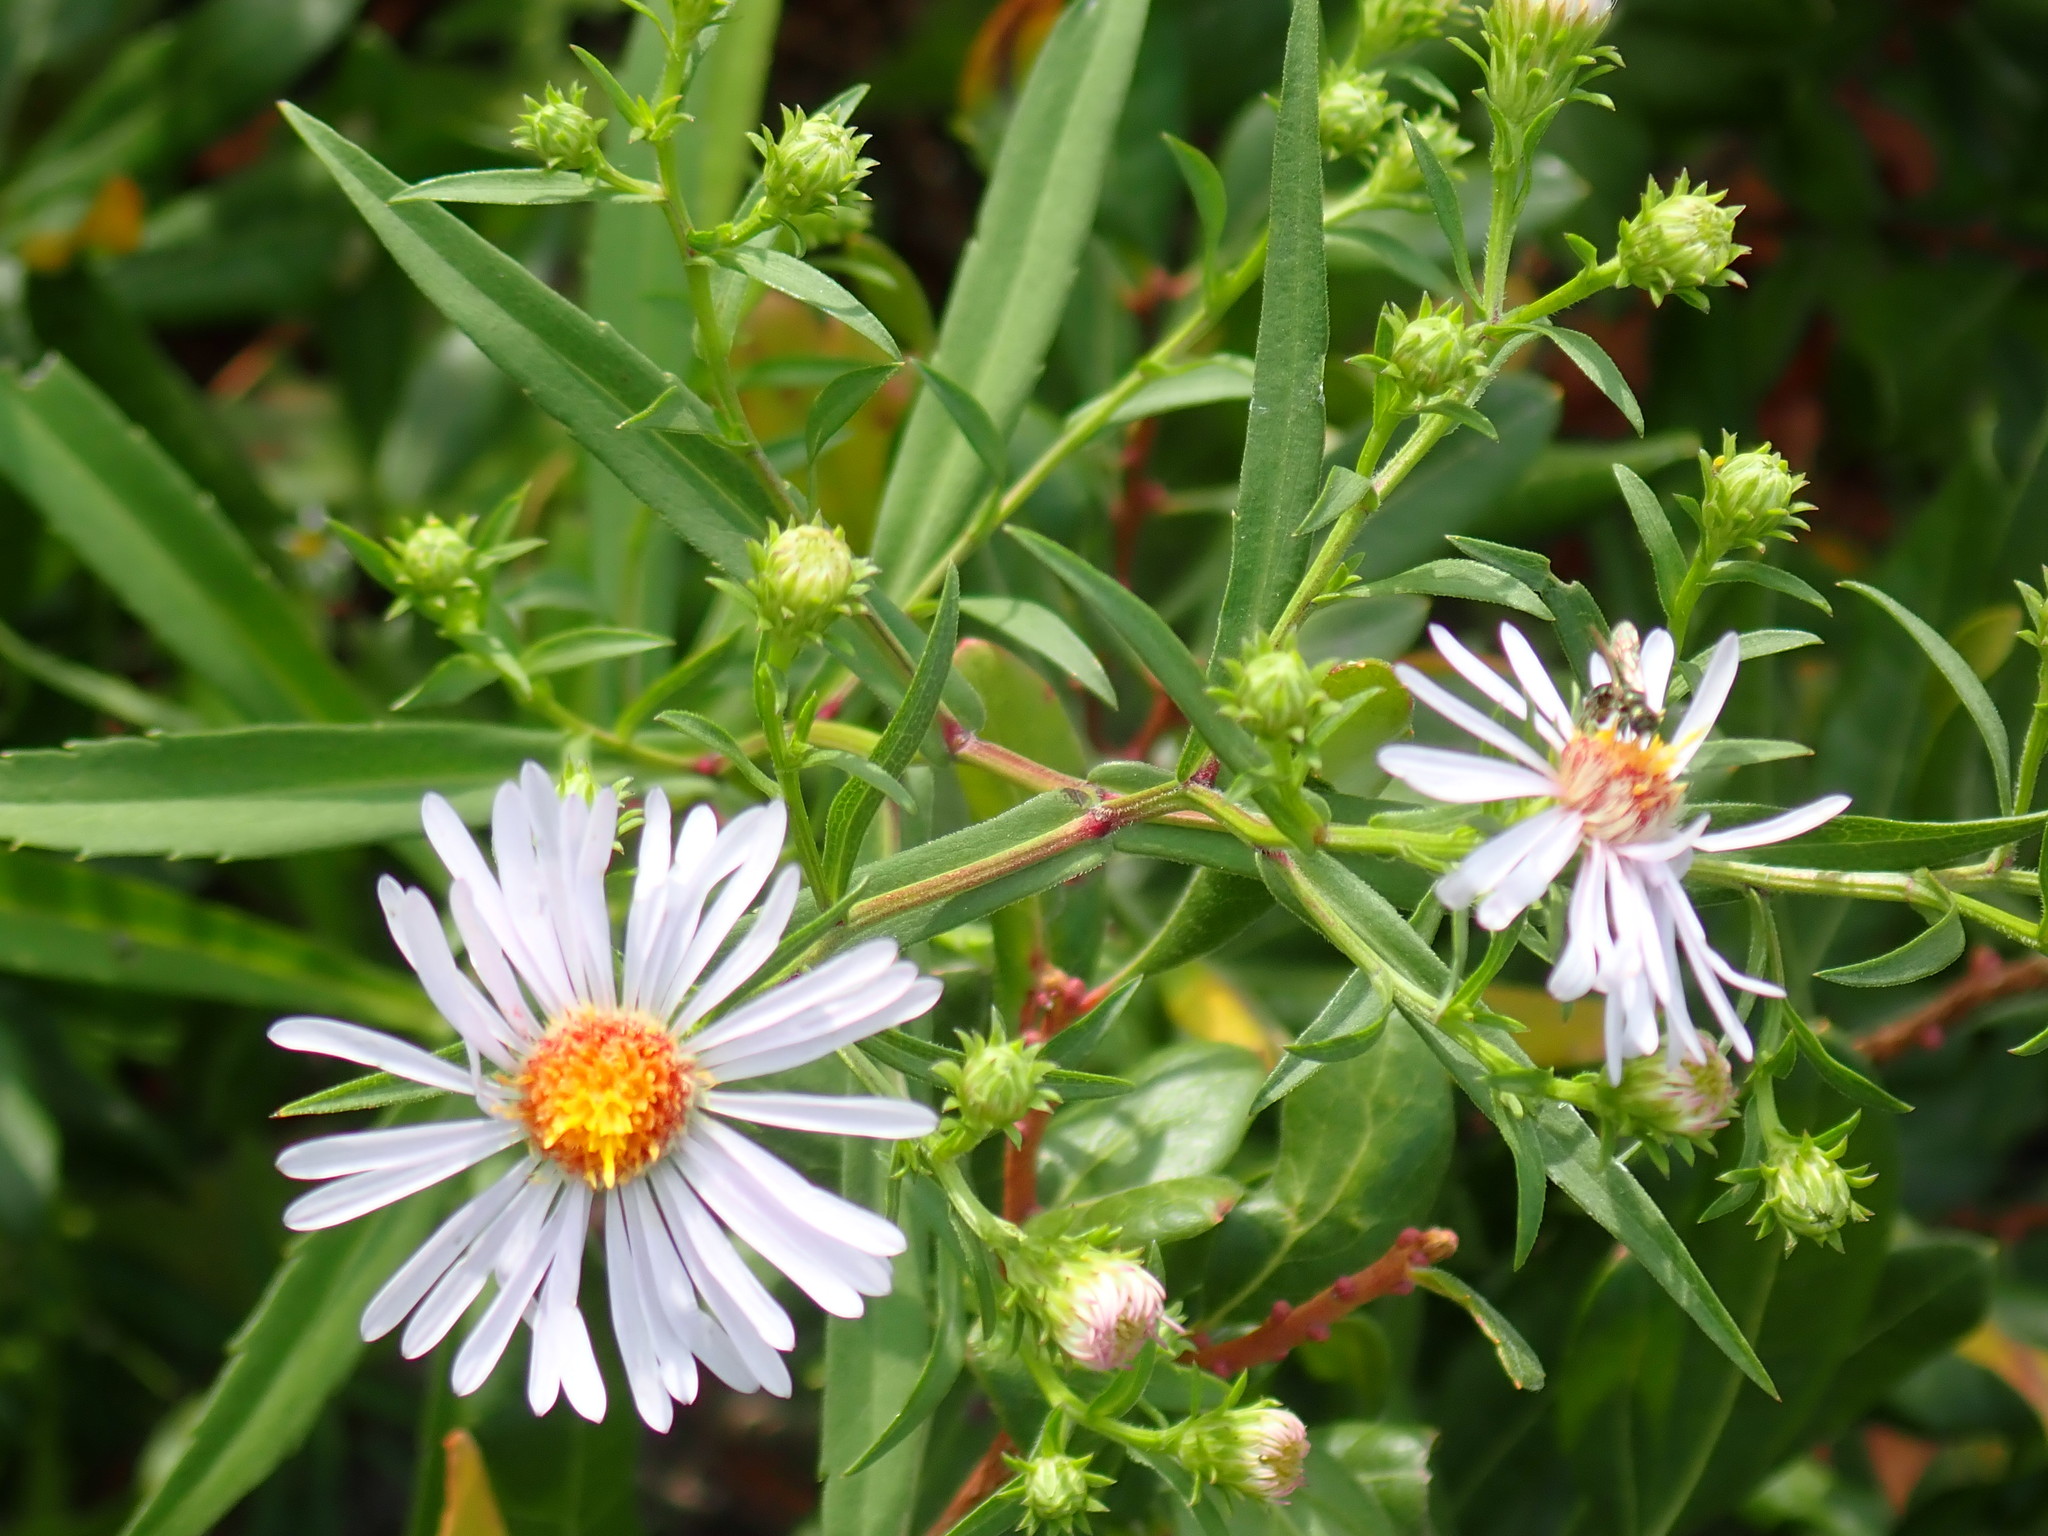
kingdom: Plantae
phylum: Tracheophyta
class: Magnoliopsida
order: Asterales
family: Asteraceae
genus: Symphyotrichum
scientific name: Symphyotrichum novi-belgii
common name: Michaelmas daisy
